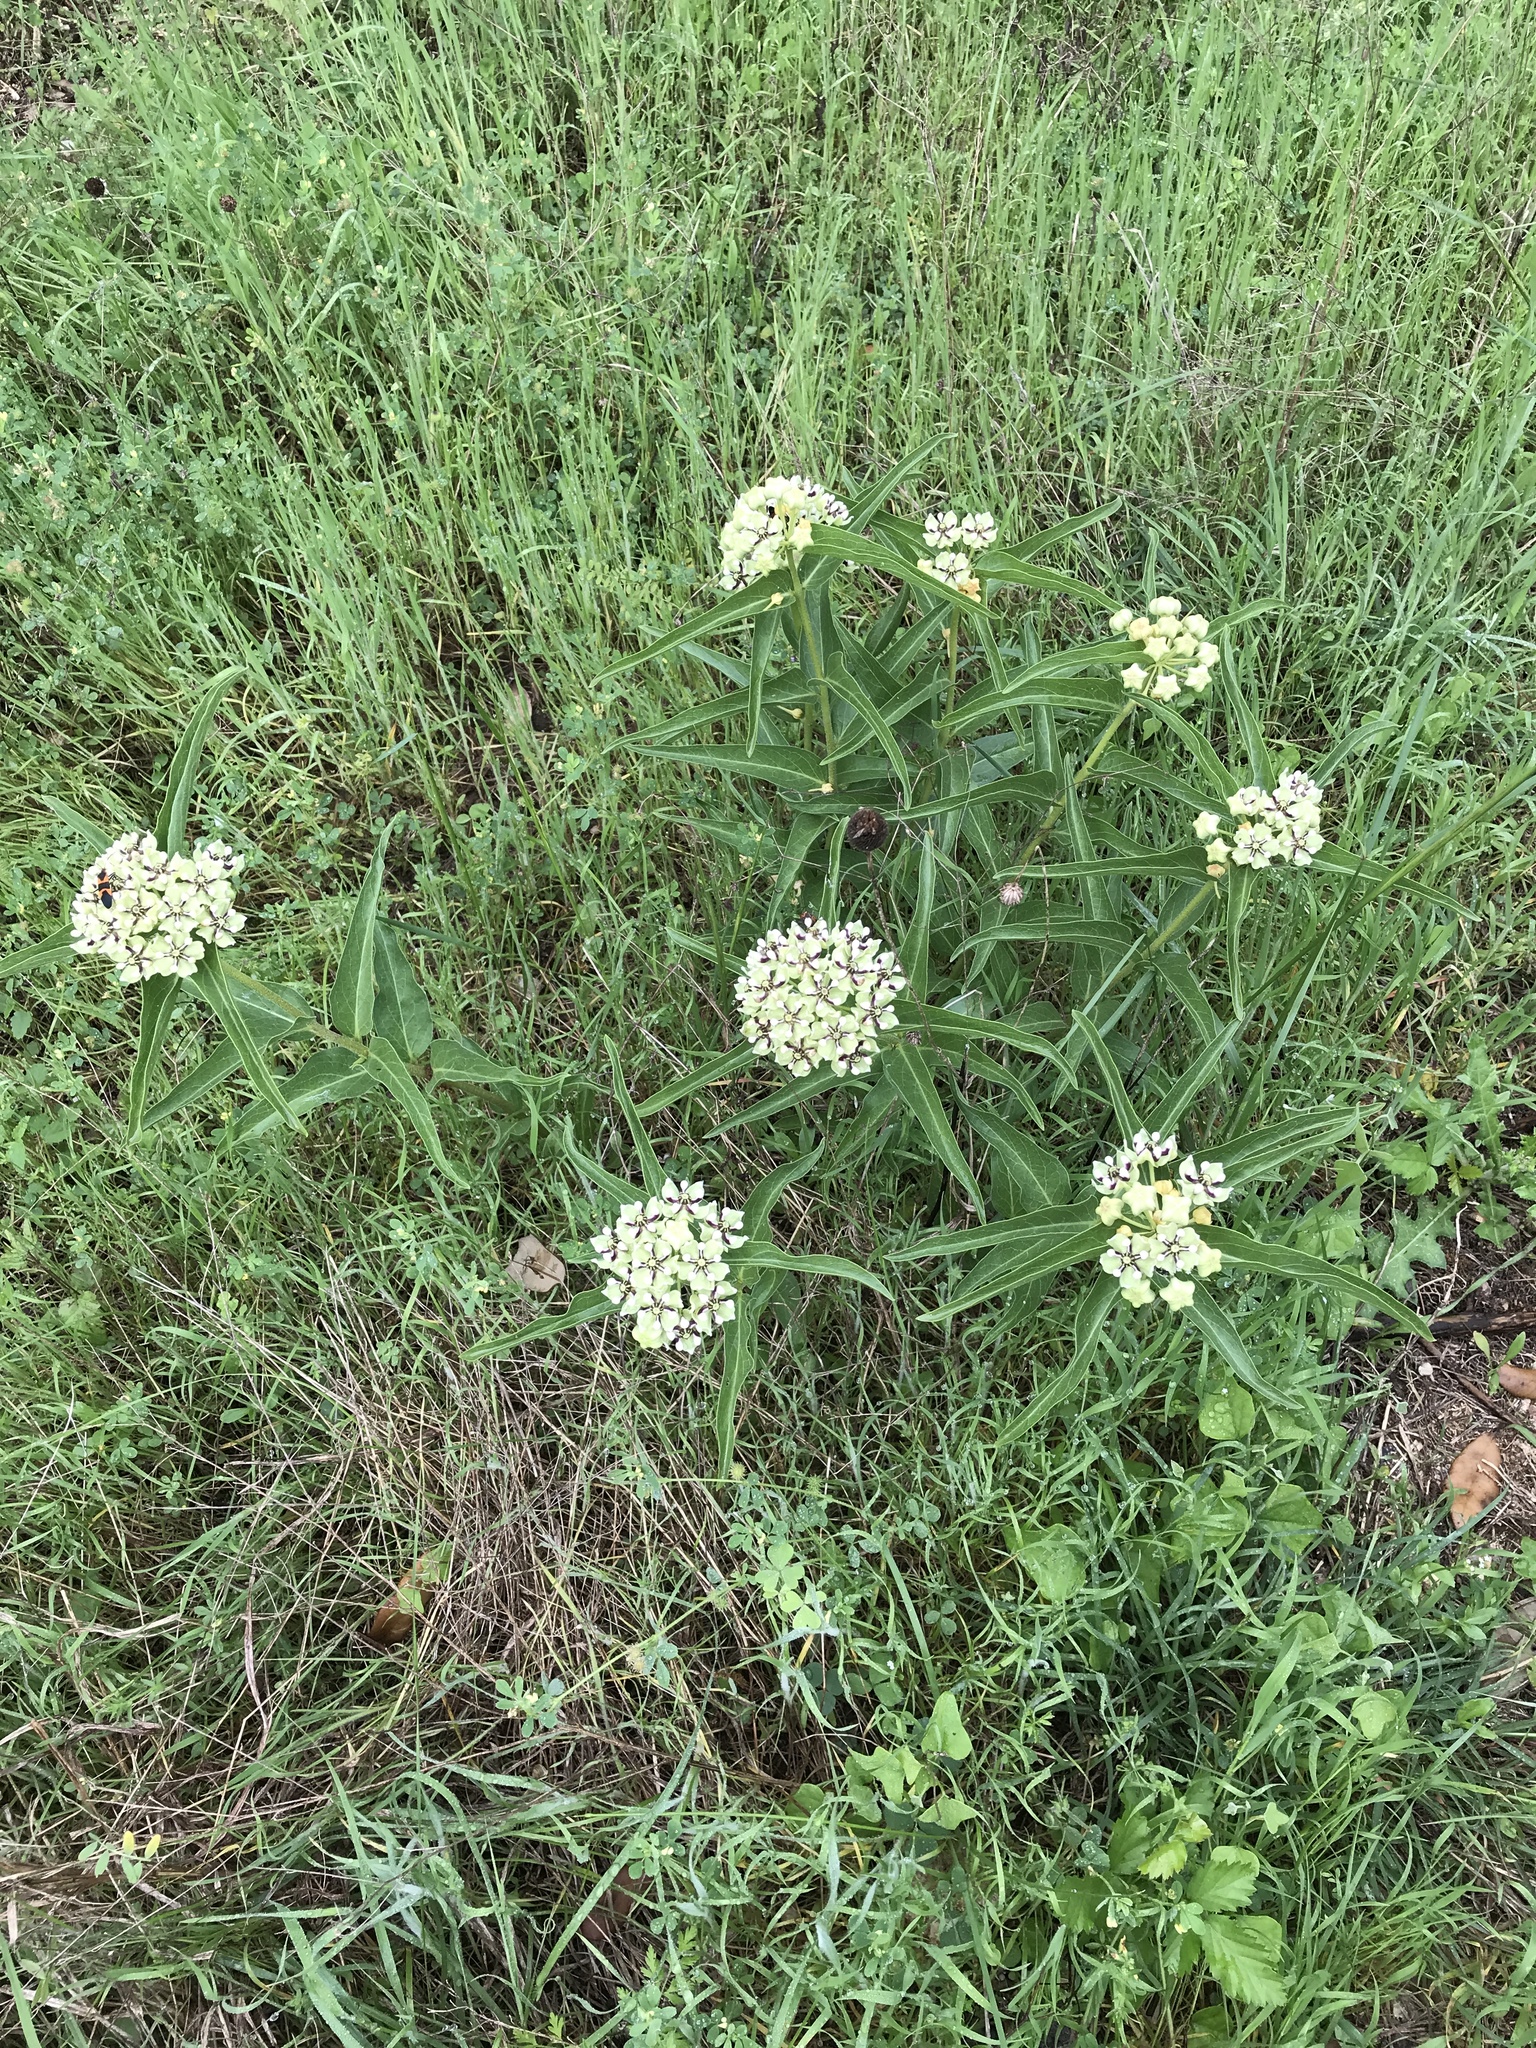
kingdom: Plantae
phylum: Tracheophyta
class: Magnoliopsida
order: Gentianales
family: Apocynaceae
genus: Asclepias
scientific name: Asclepias asperula
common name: Antelope horns
